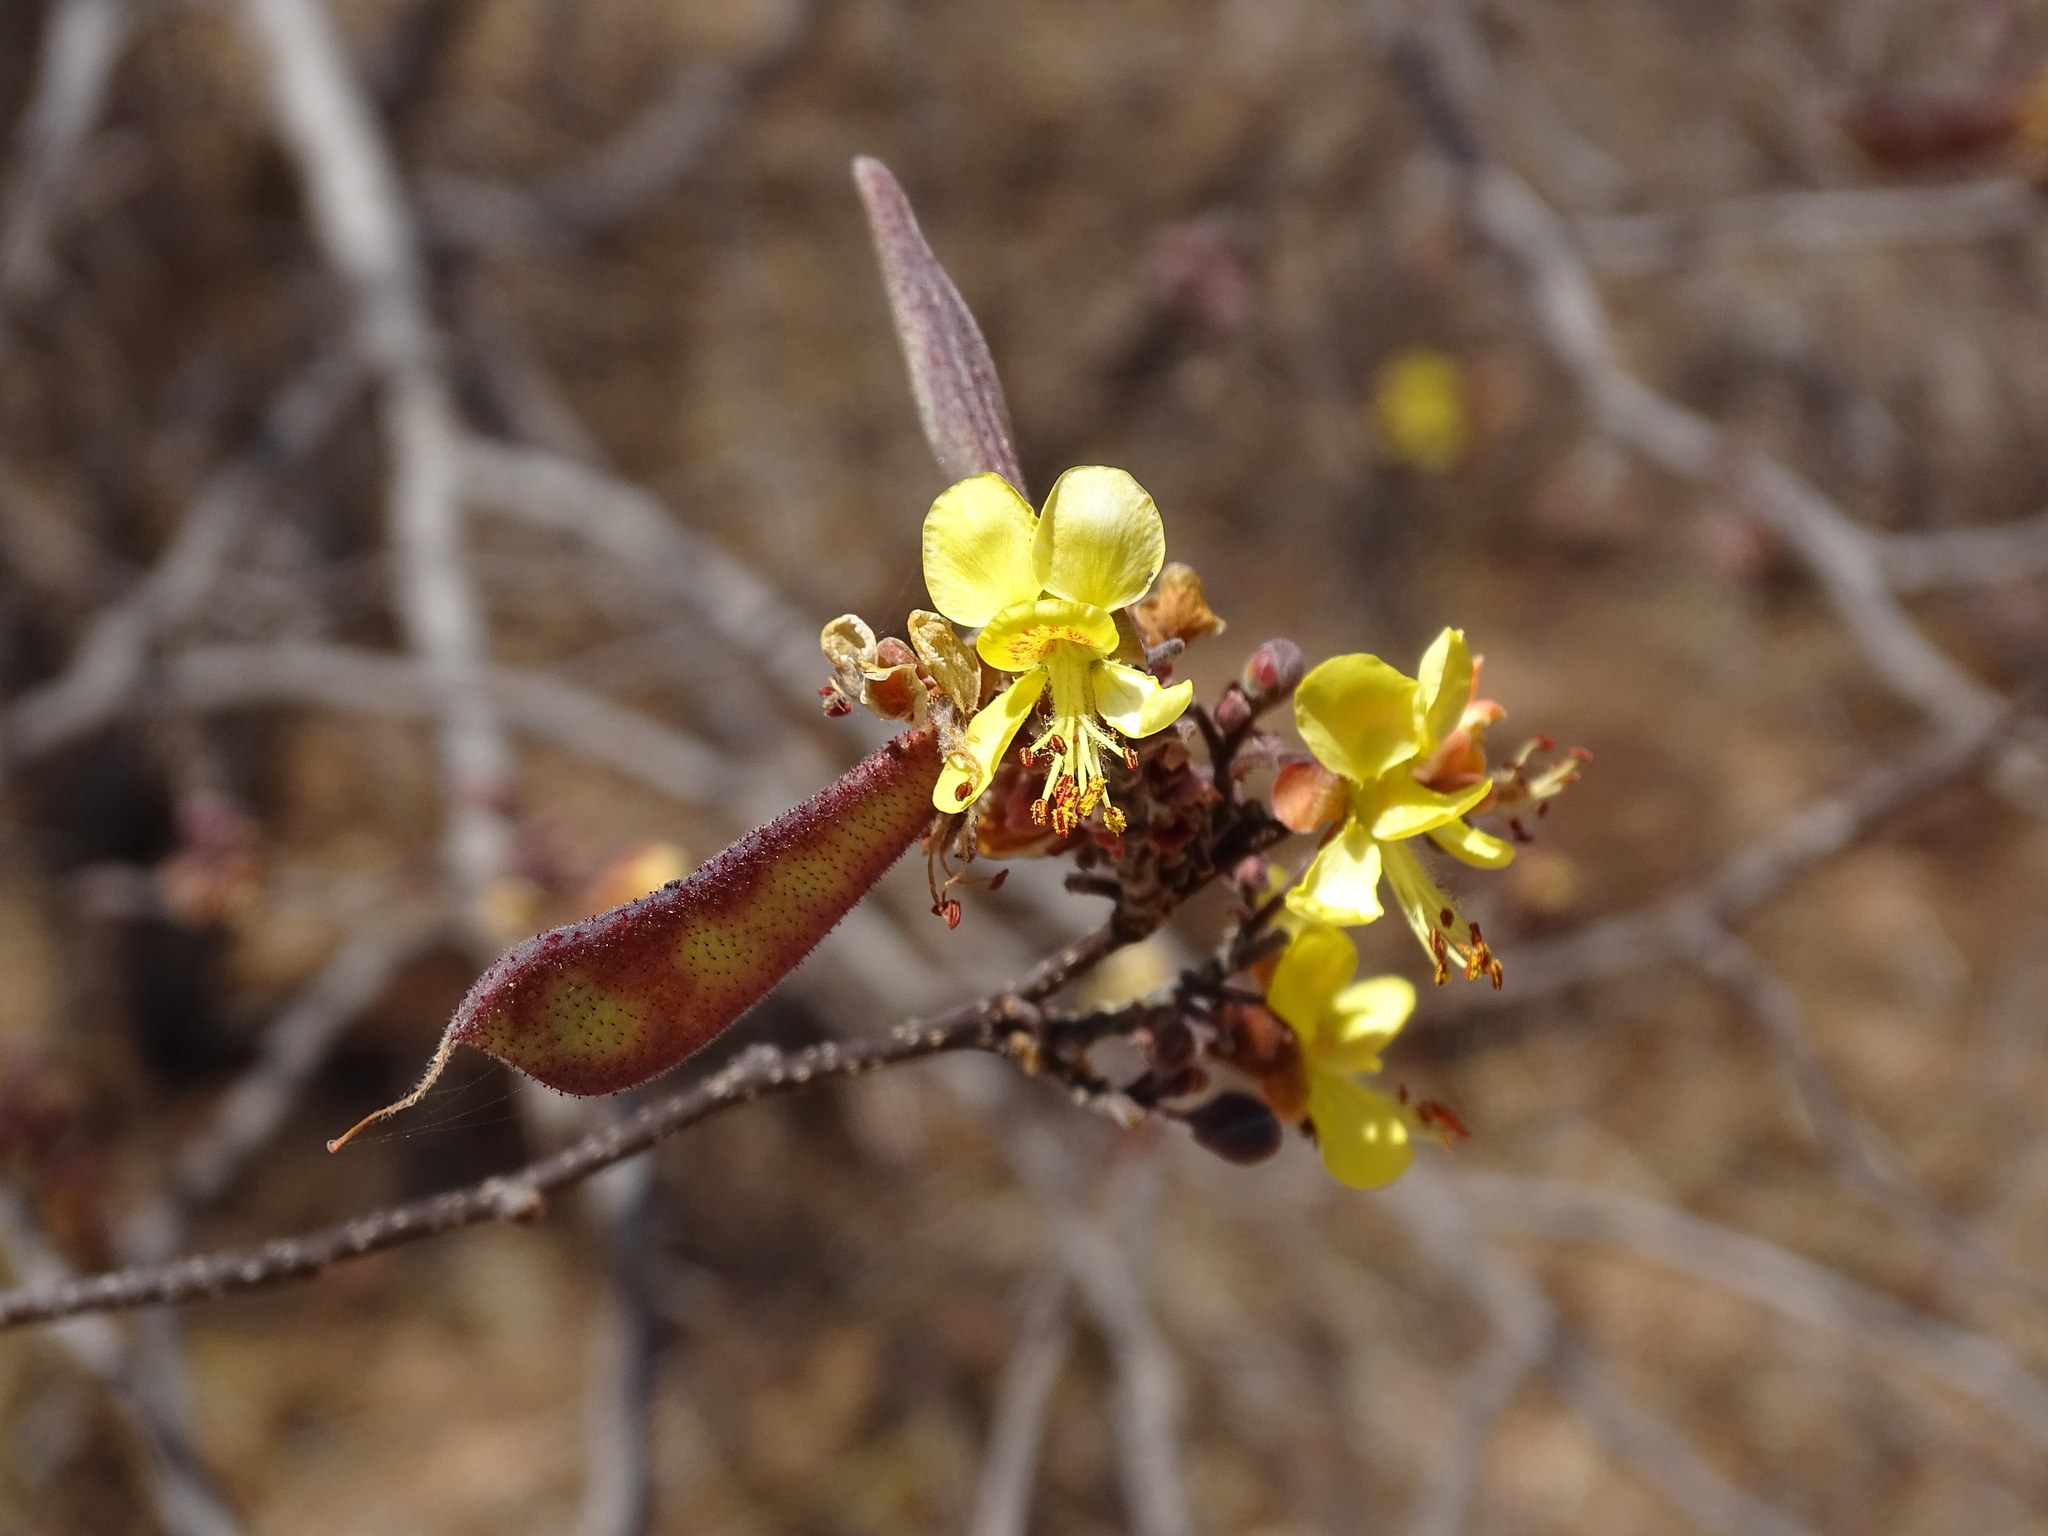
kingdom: Plantae
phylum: Tracheophyta
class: Magnoliopsida
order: Fabales
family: Fabaceae
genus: Erythrostemon
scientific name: Erythrostemon palmeri
